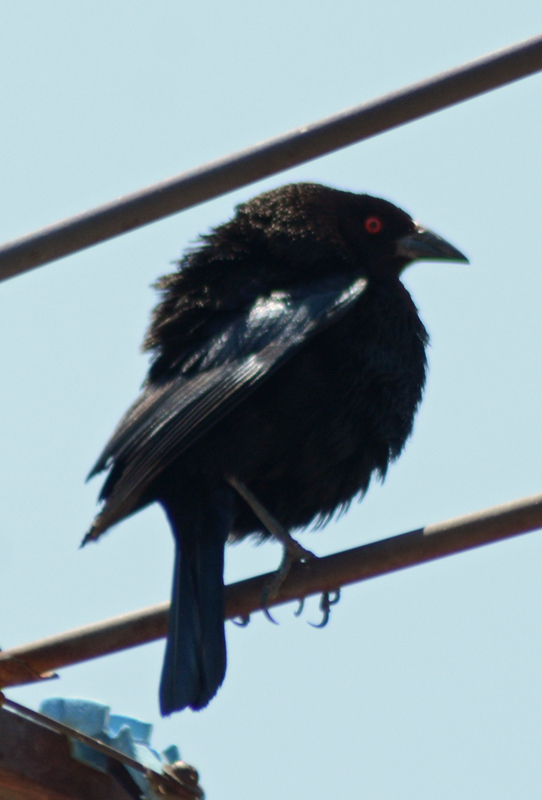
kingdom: Animalia
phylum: Chordata
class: Aves
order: Passeriformes
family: Icteridae
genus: Molothrus
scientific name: Molothrus aeneus
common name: Bronzed cowbird
